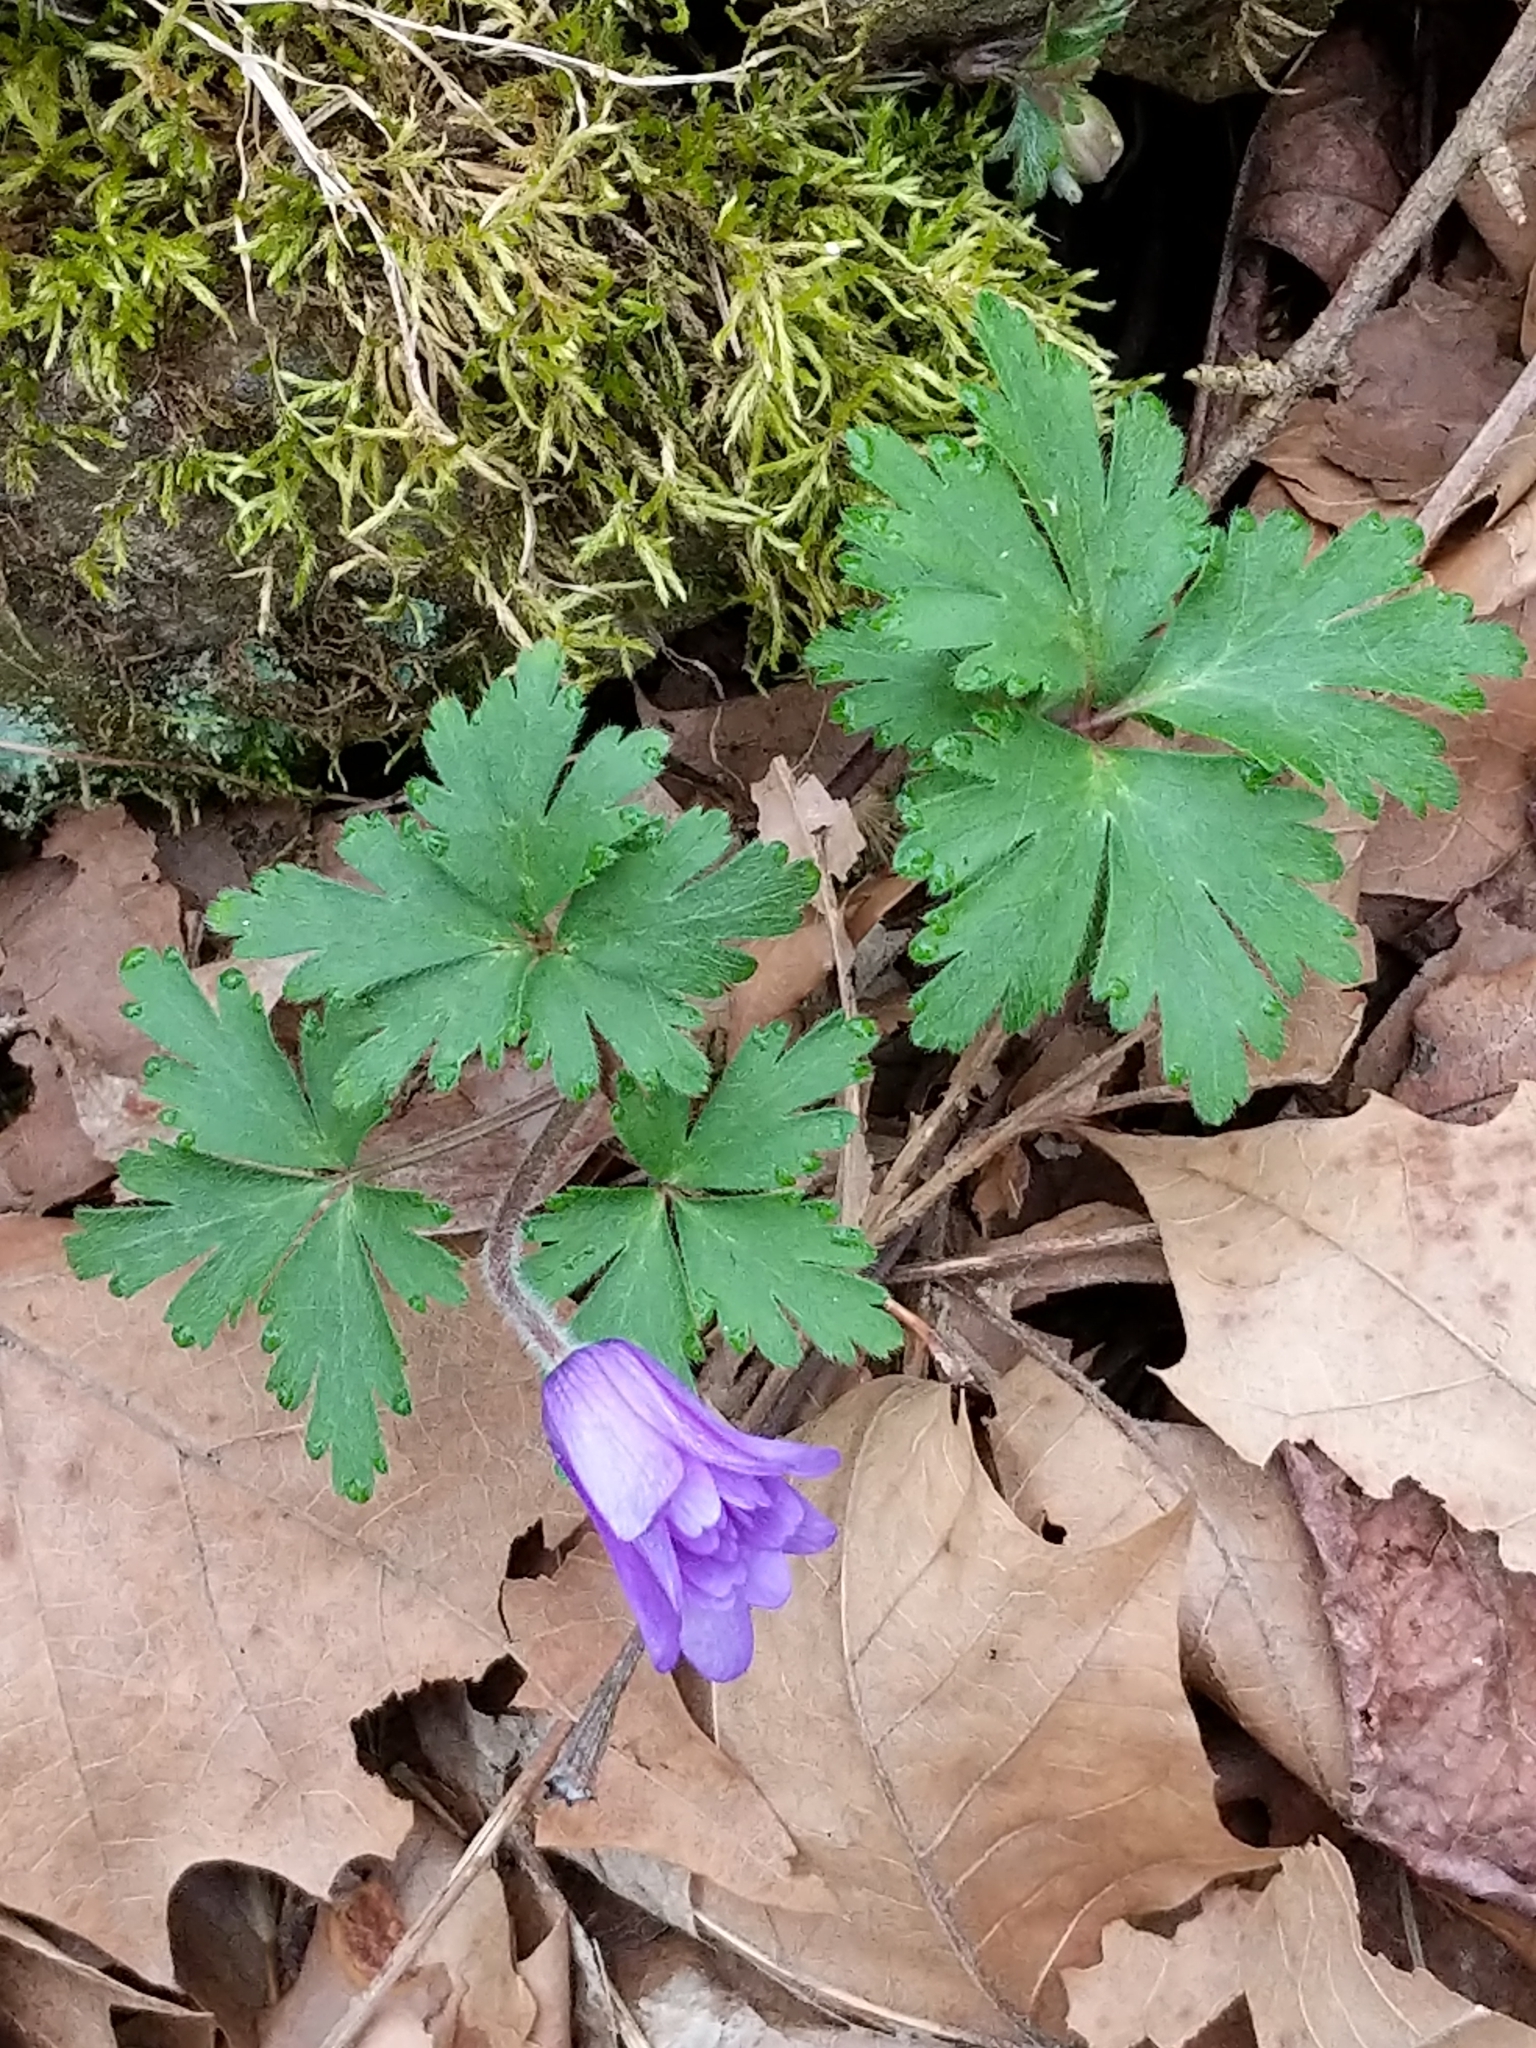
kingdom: Plantae
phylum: Tracheophyta
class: Magnoliopsida
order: Ranunculales
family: Ranunculaceae
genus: Anemone
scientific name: Anemone blanda
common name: Balkan anemone
